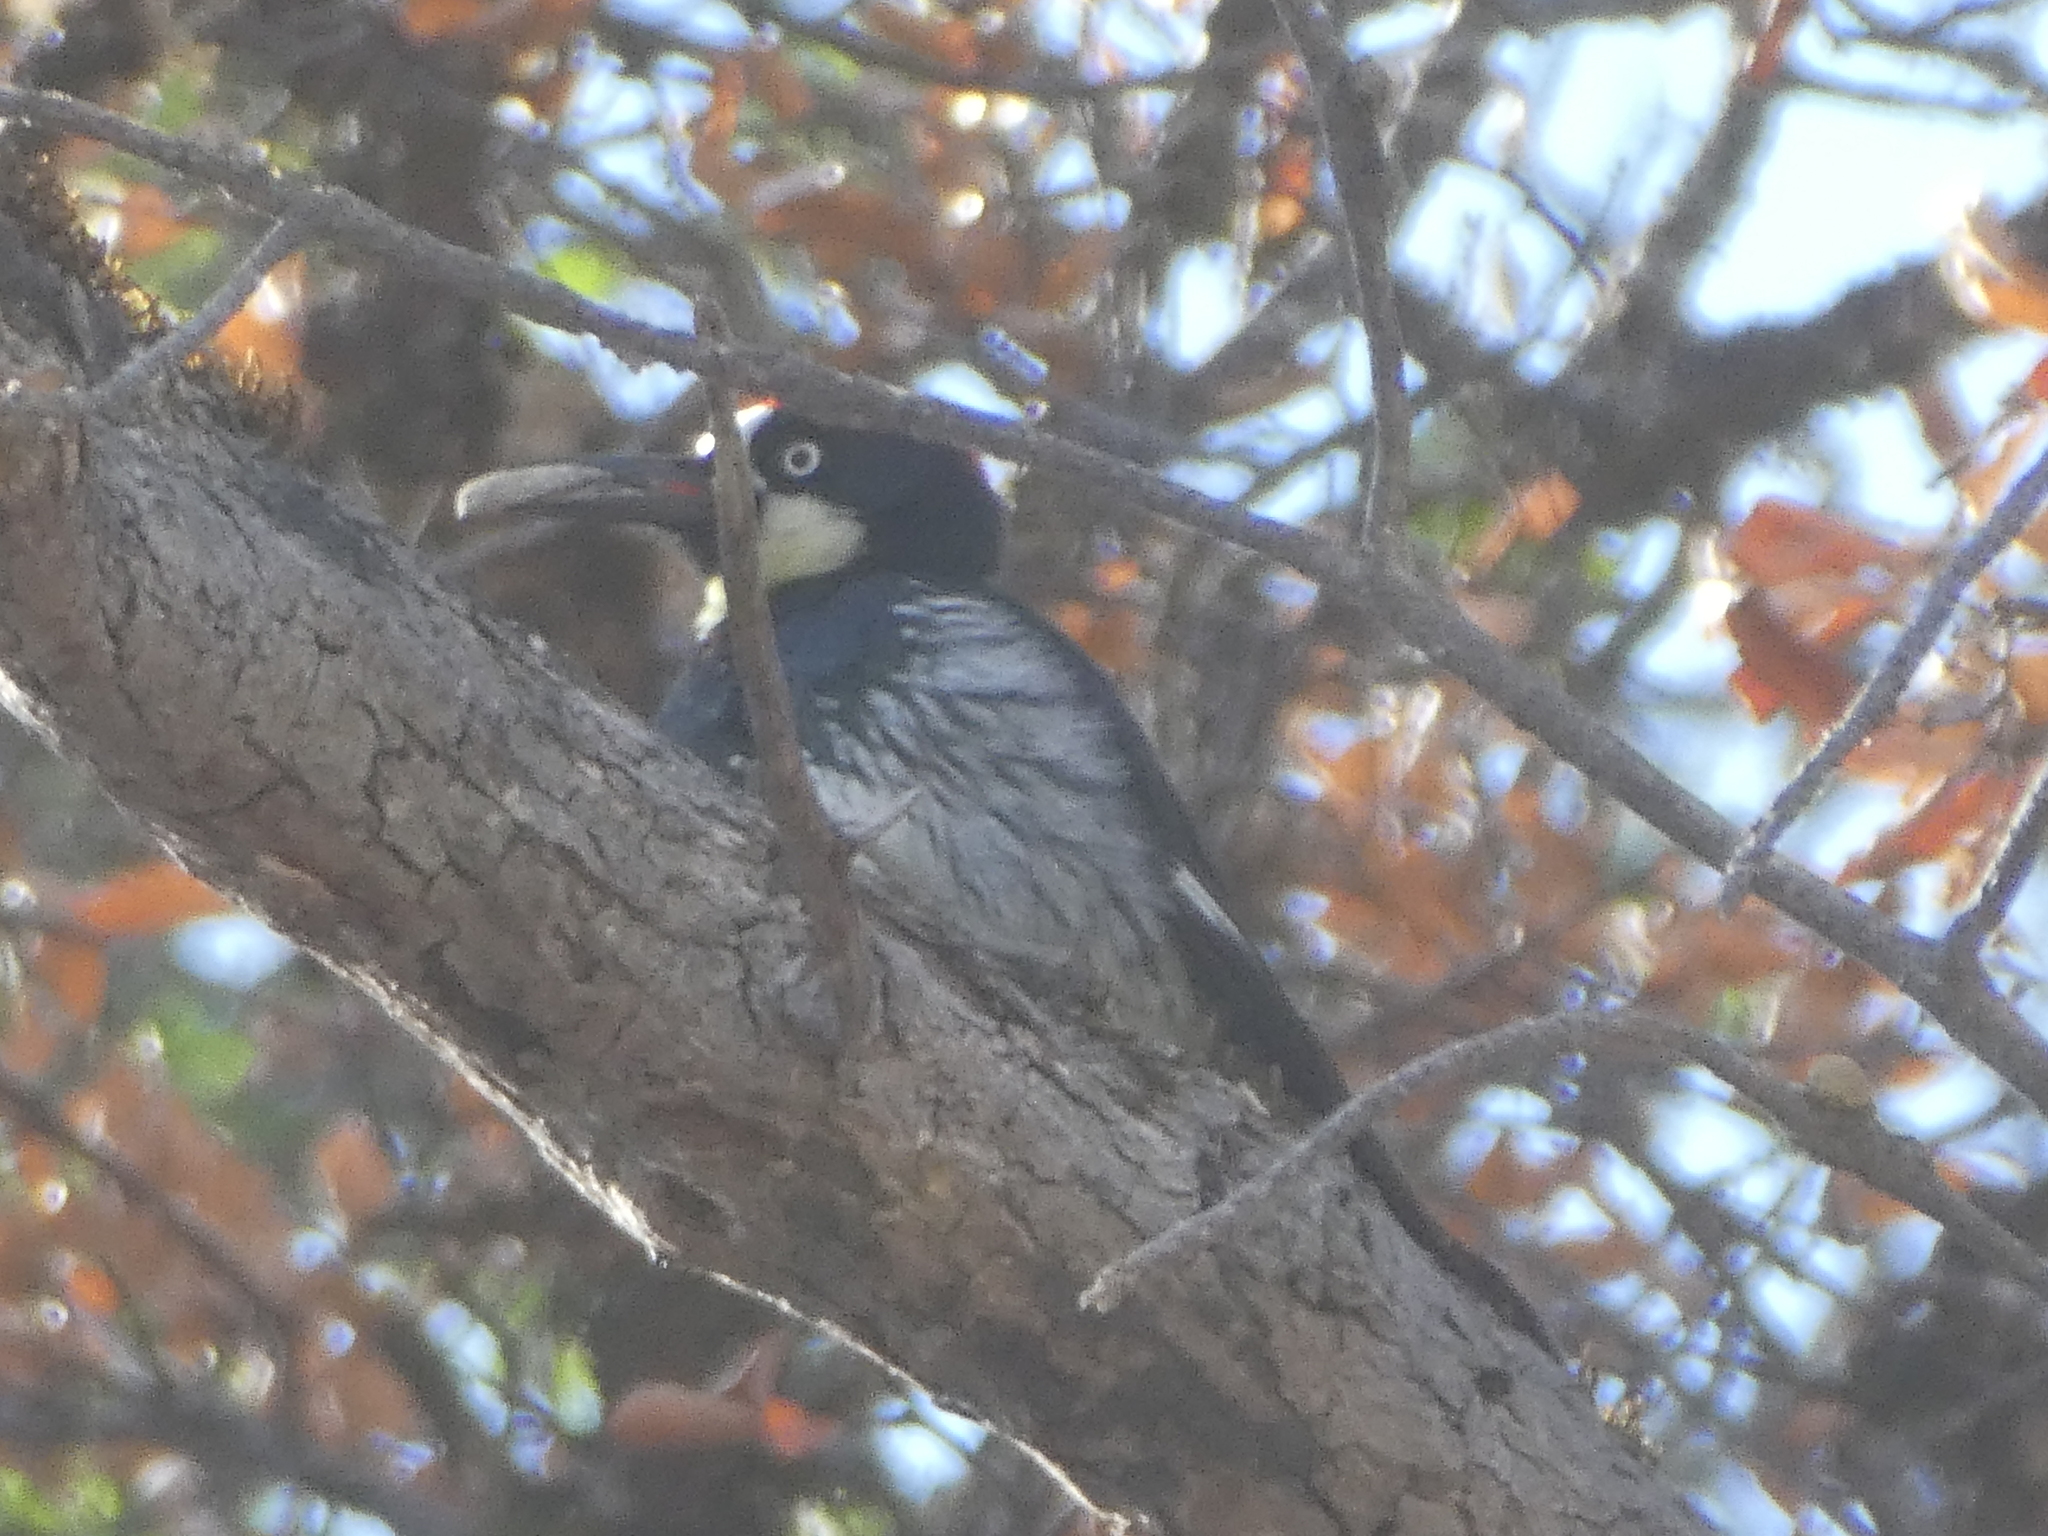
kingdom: Animalia
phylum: Chordata
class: Aves
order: Piciformes
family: Picidae
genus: Melanerpes
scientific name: Melanerpes formicivorus
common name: Acorn woodpecker
